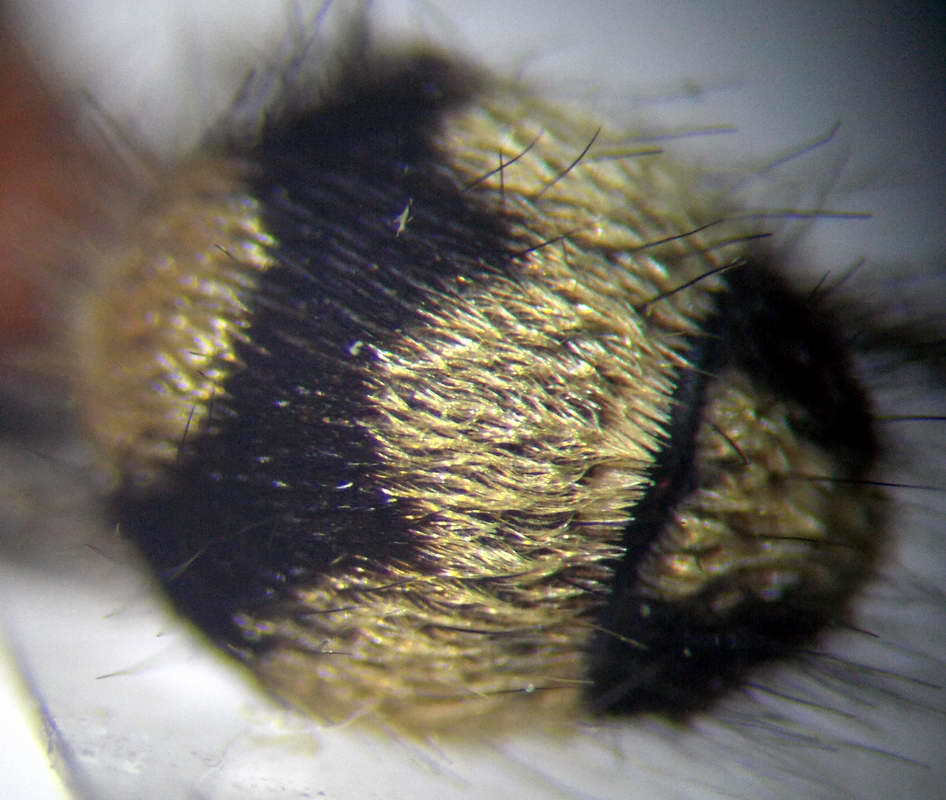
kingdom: Animalia
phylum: Arthropoda
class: Insecta
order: Hymenoptera
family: Mutillidae
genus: Dasylabris
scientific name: Dasylabris regalis
